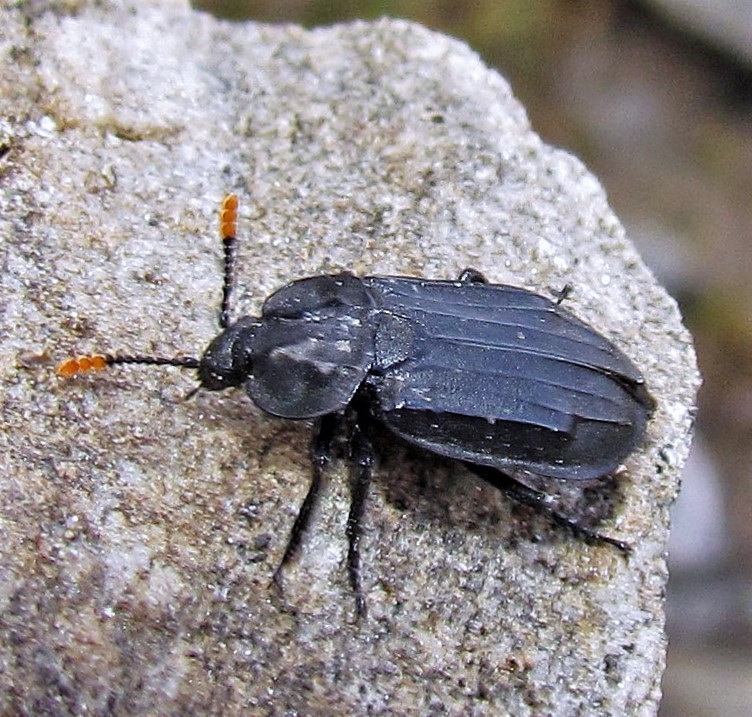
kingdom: Animalia
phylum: Arthropoda
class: Insecta
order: Coleoptera
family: Staphylinidae
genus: Oxelytrum
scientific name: Oxelytrum apicale
